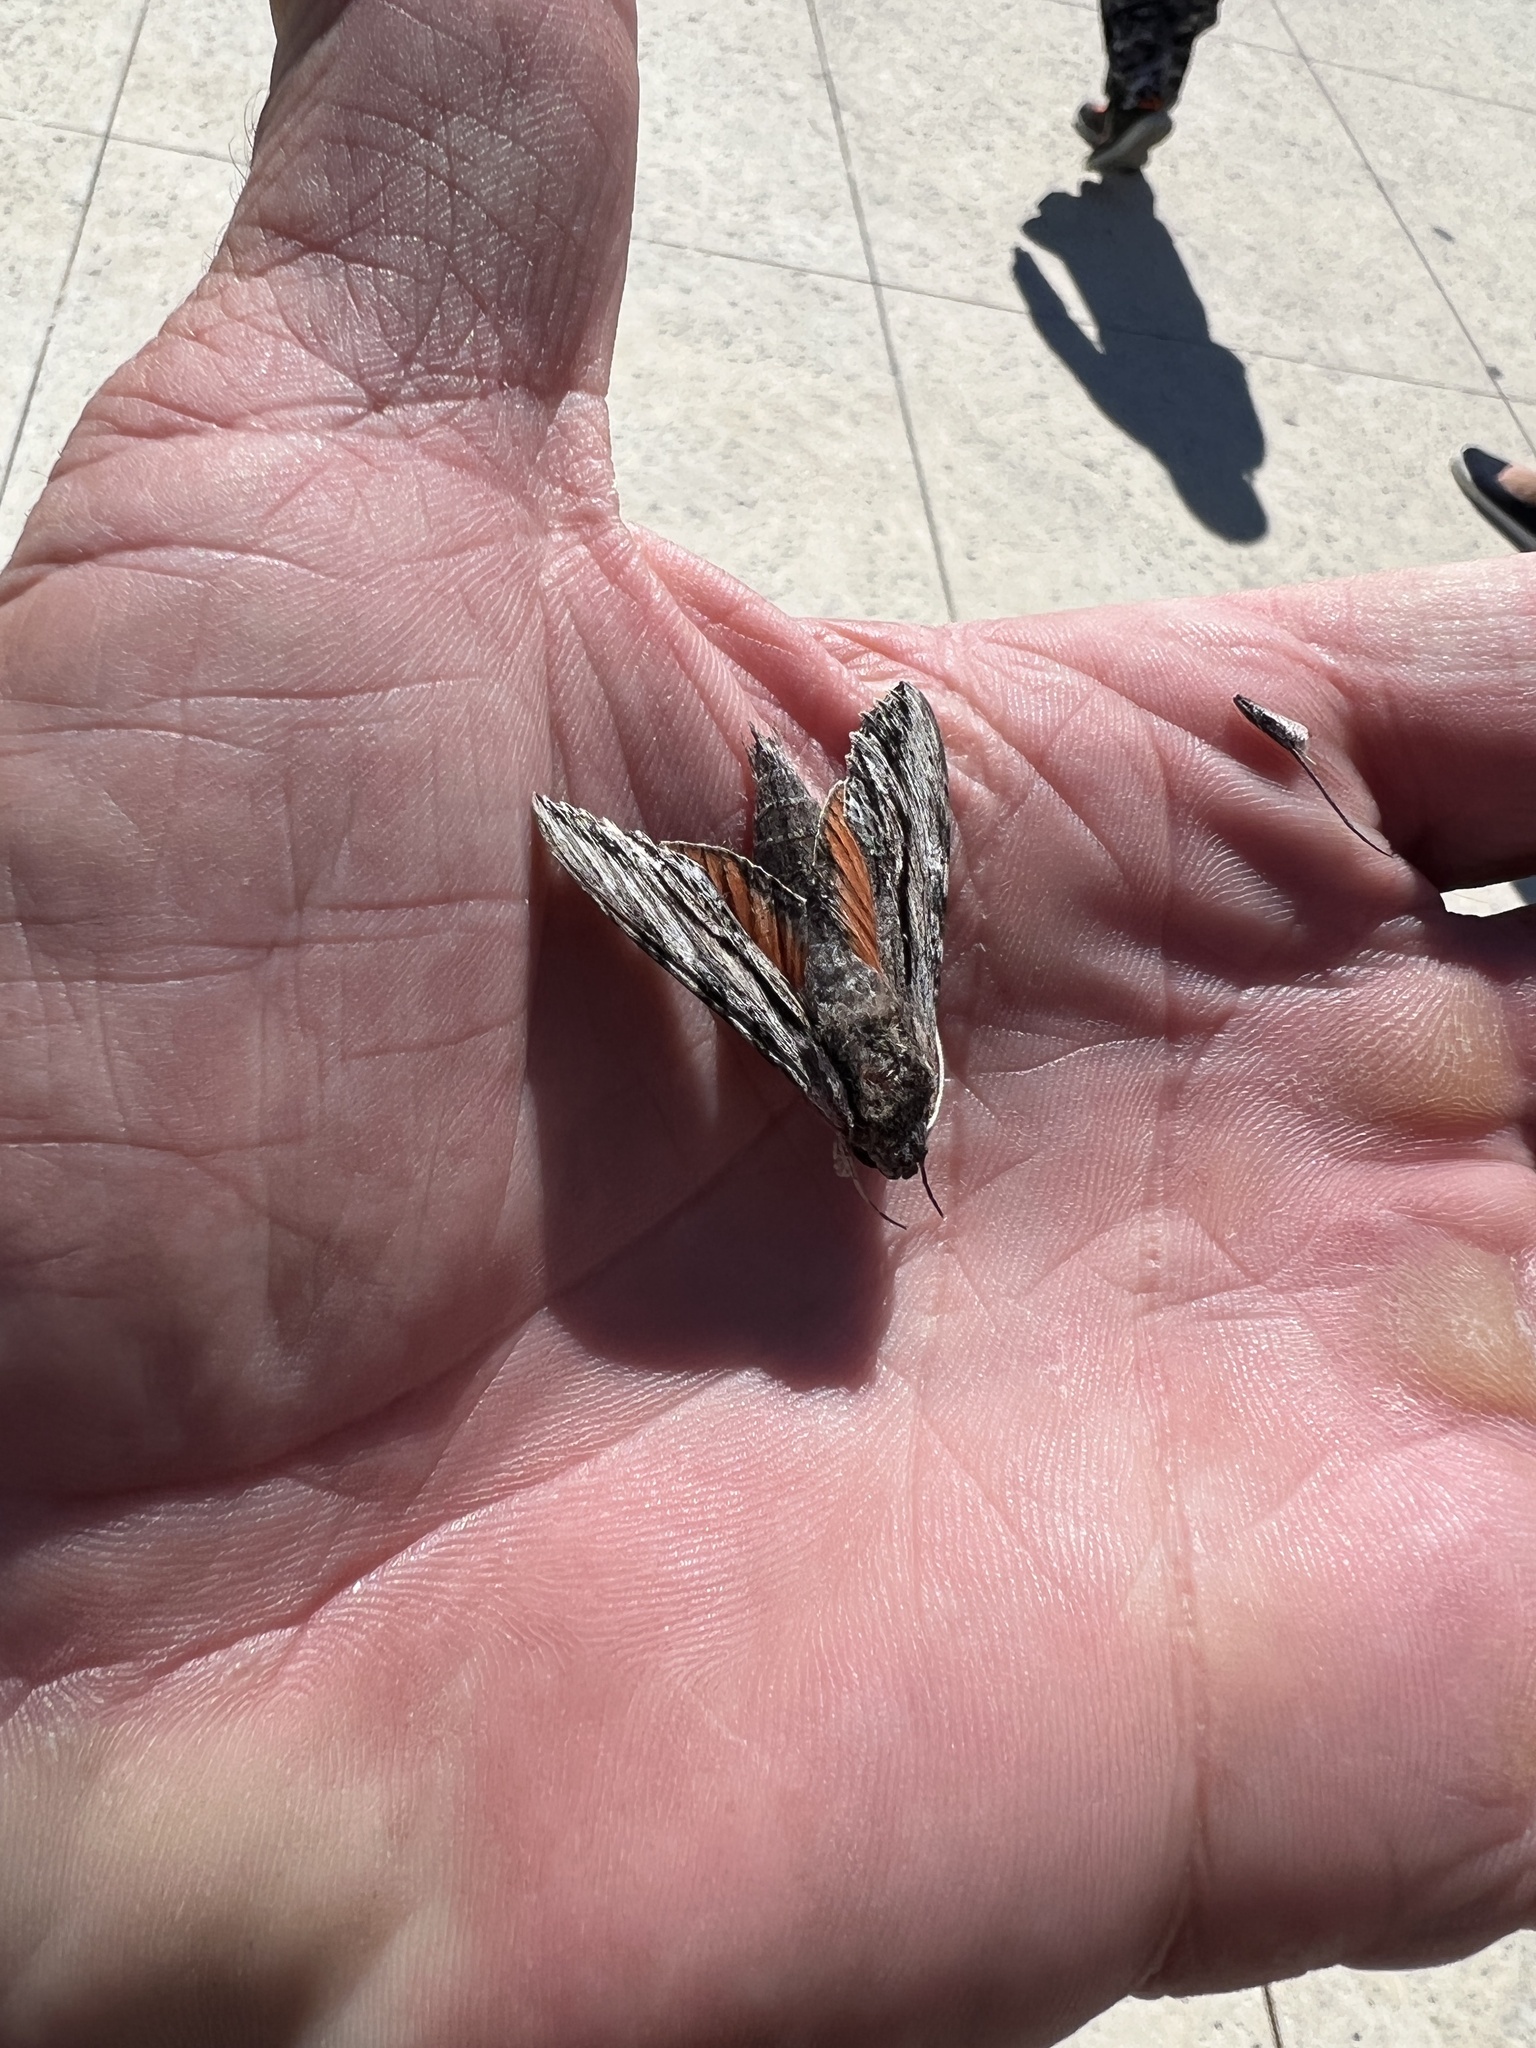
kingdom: Animalia
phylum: Arthropoda
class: Insecta
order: Lepidoptera
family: Sphingidae
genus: Erinnyis
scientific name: Erinnyis obscura
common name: Obscure sphinx
